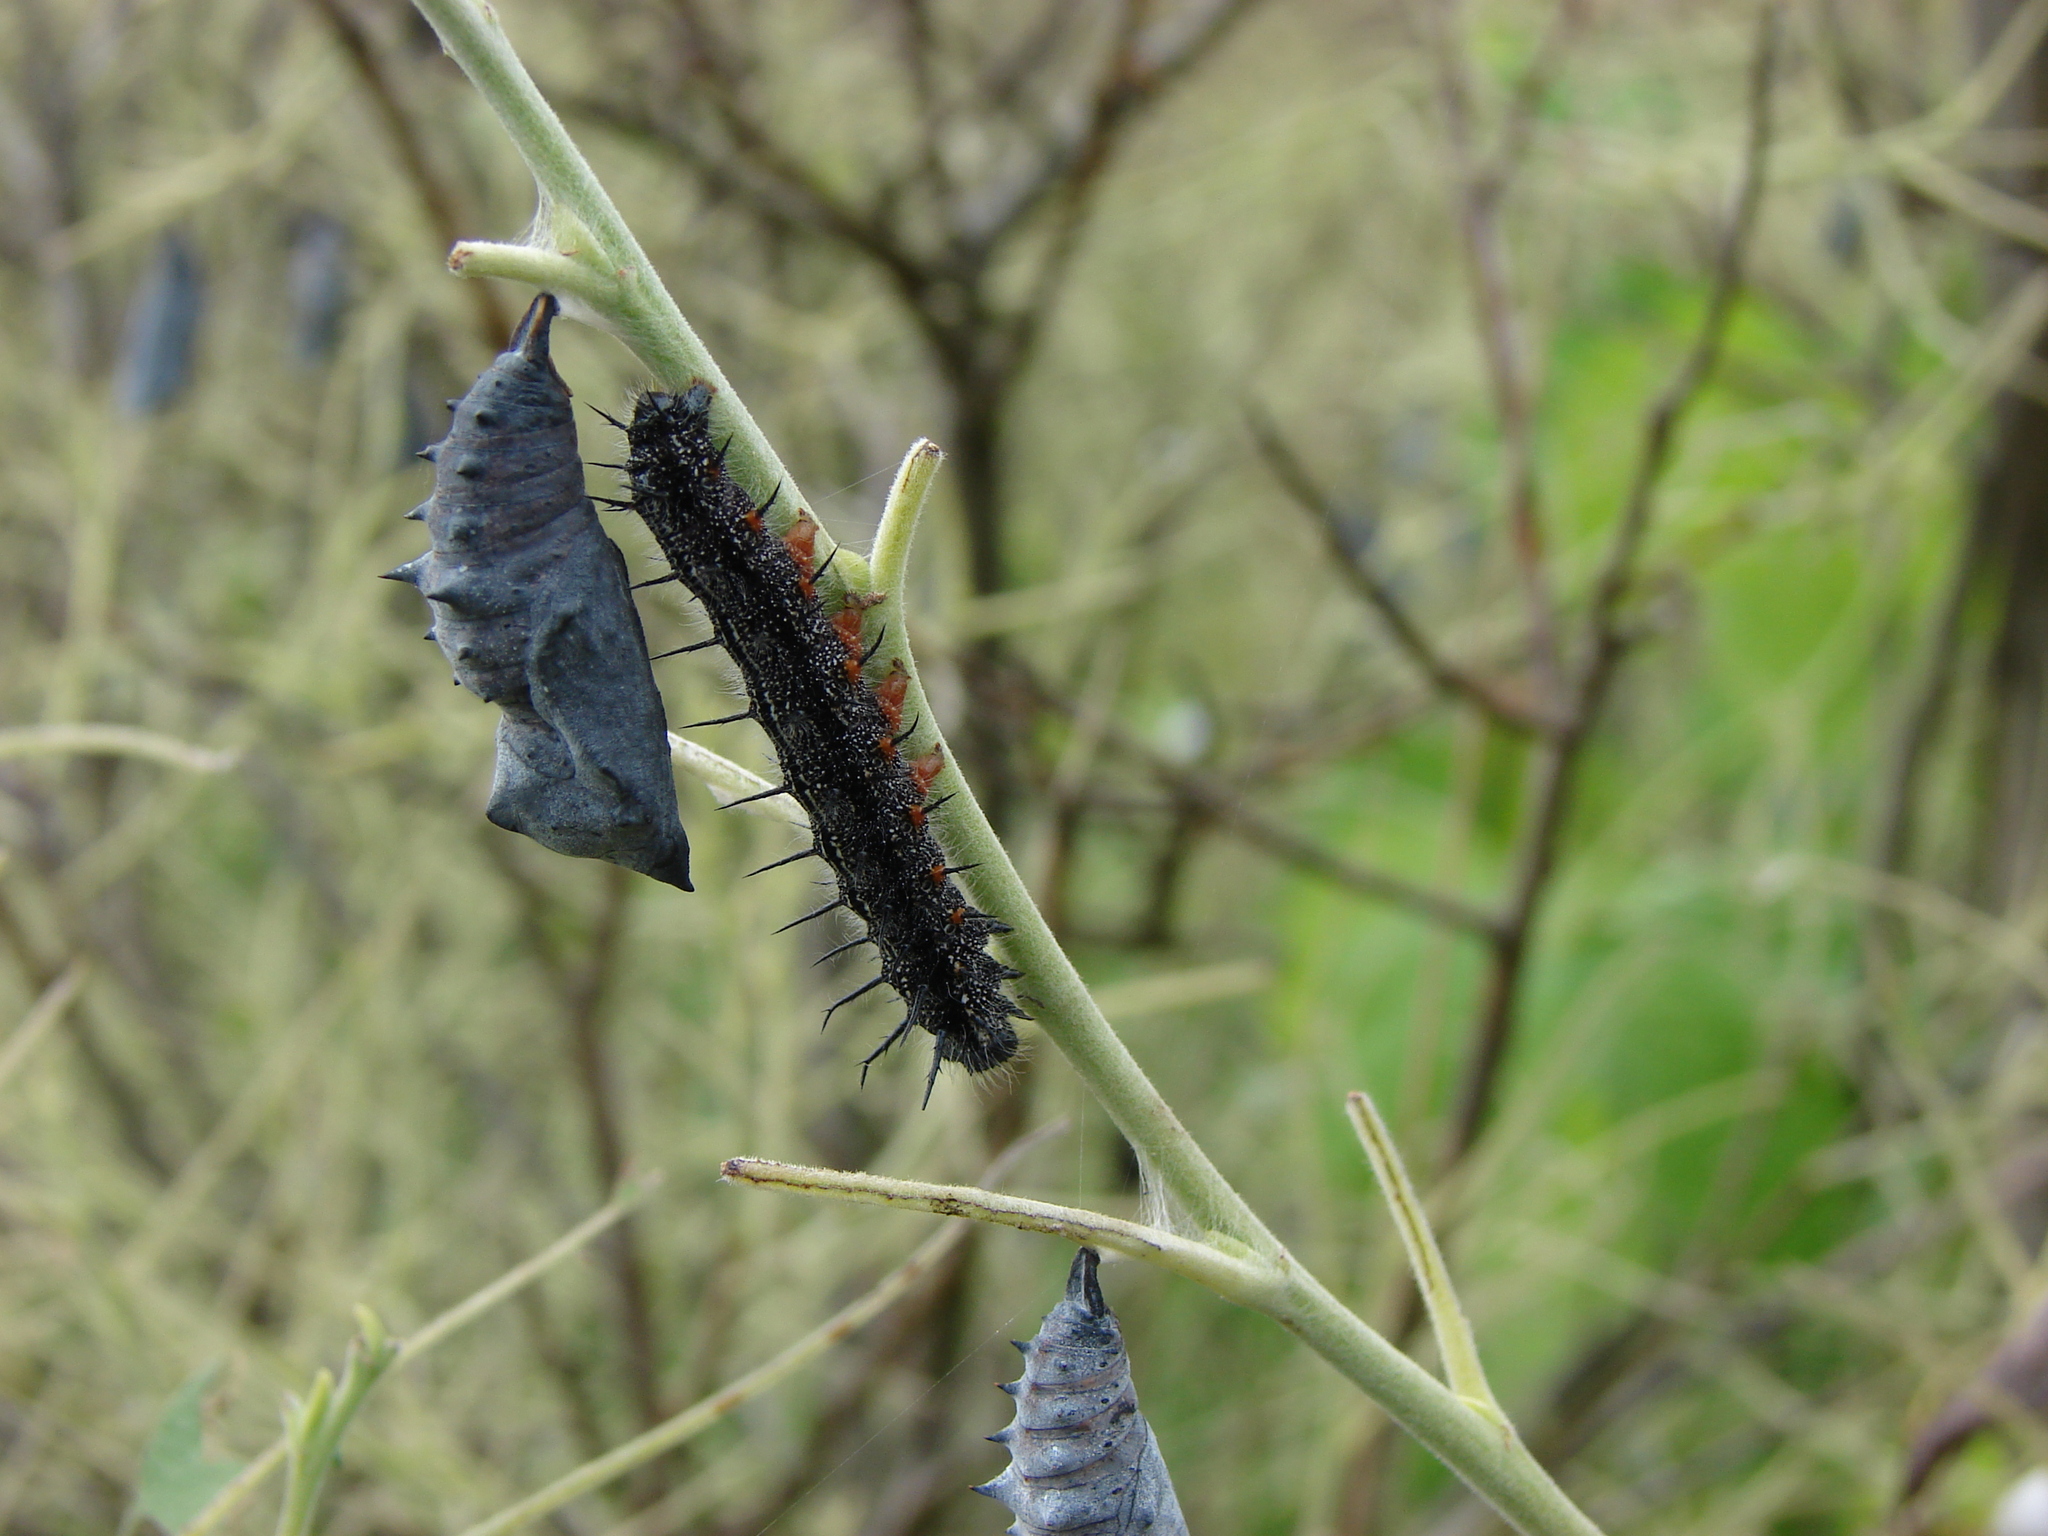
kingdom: Animalia
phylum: Arthropoda
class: Insecta
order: Lepidoptera
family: Nymphalidae
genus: Nymphalis
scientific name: Nymphalis xanthomelas
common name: Scarce tortoiseshell
